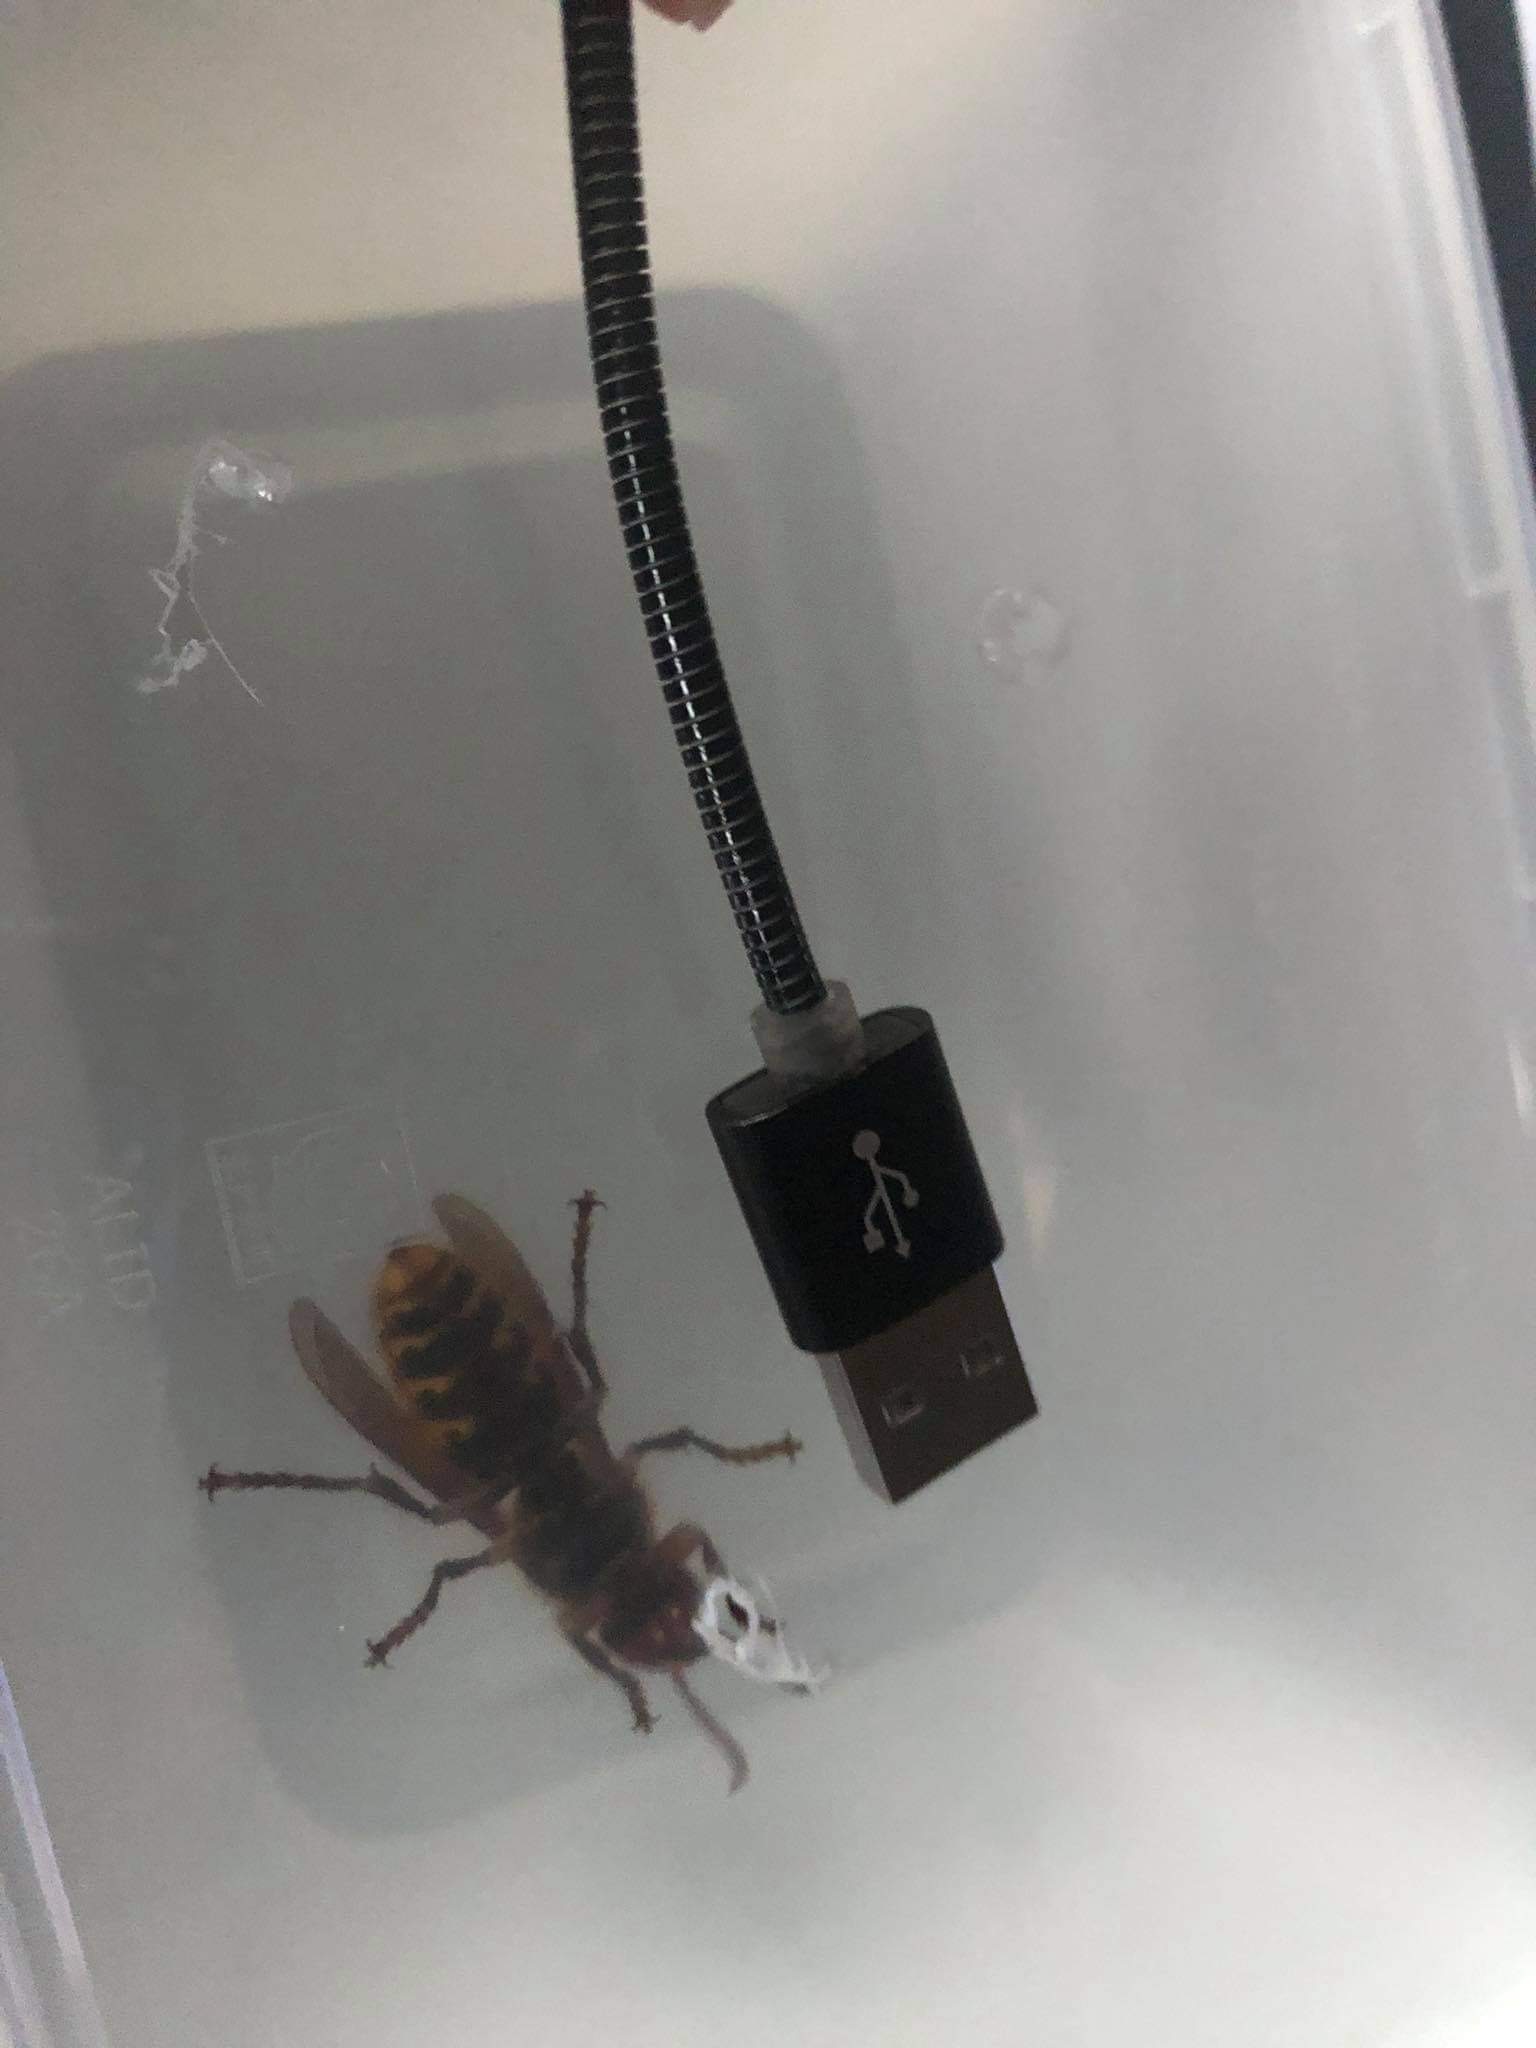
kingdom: Animalia
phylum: Arthropoda
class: Insecta
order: Hymenoptera
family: Vespidae
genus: Vespa
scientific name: Vespa crabro
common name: Hornet
